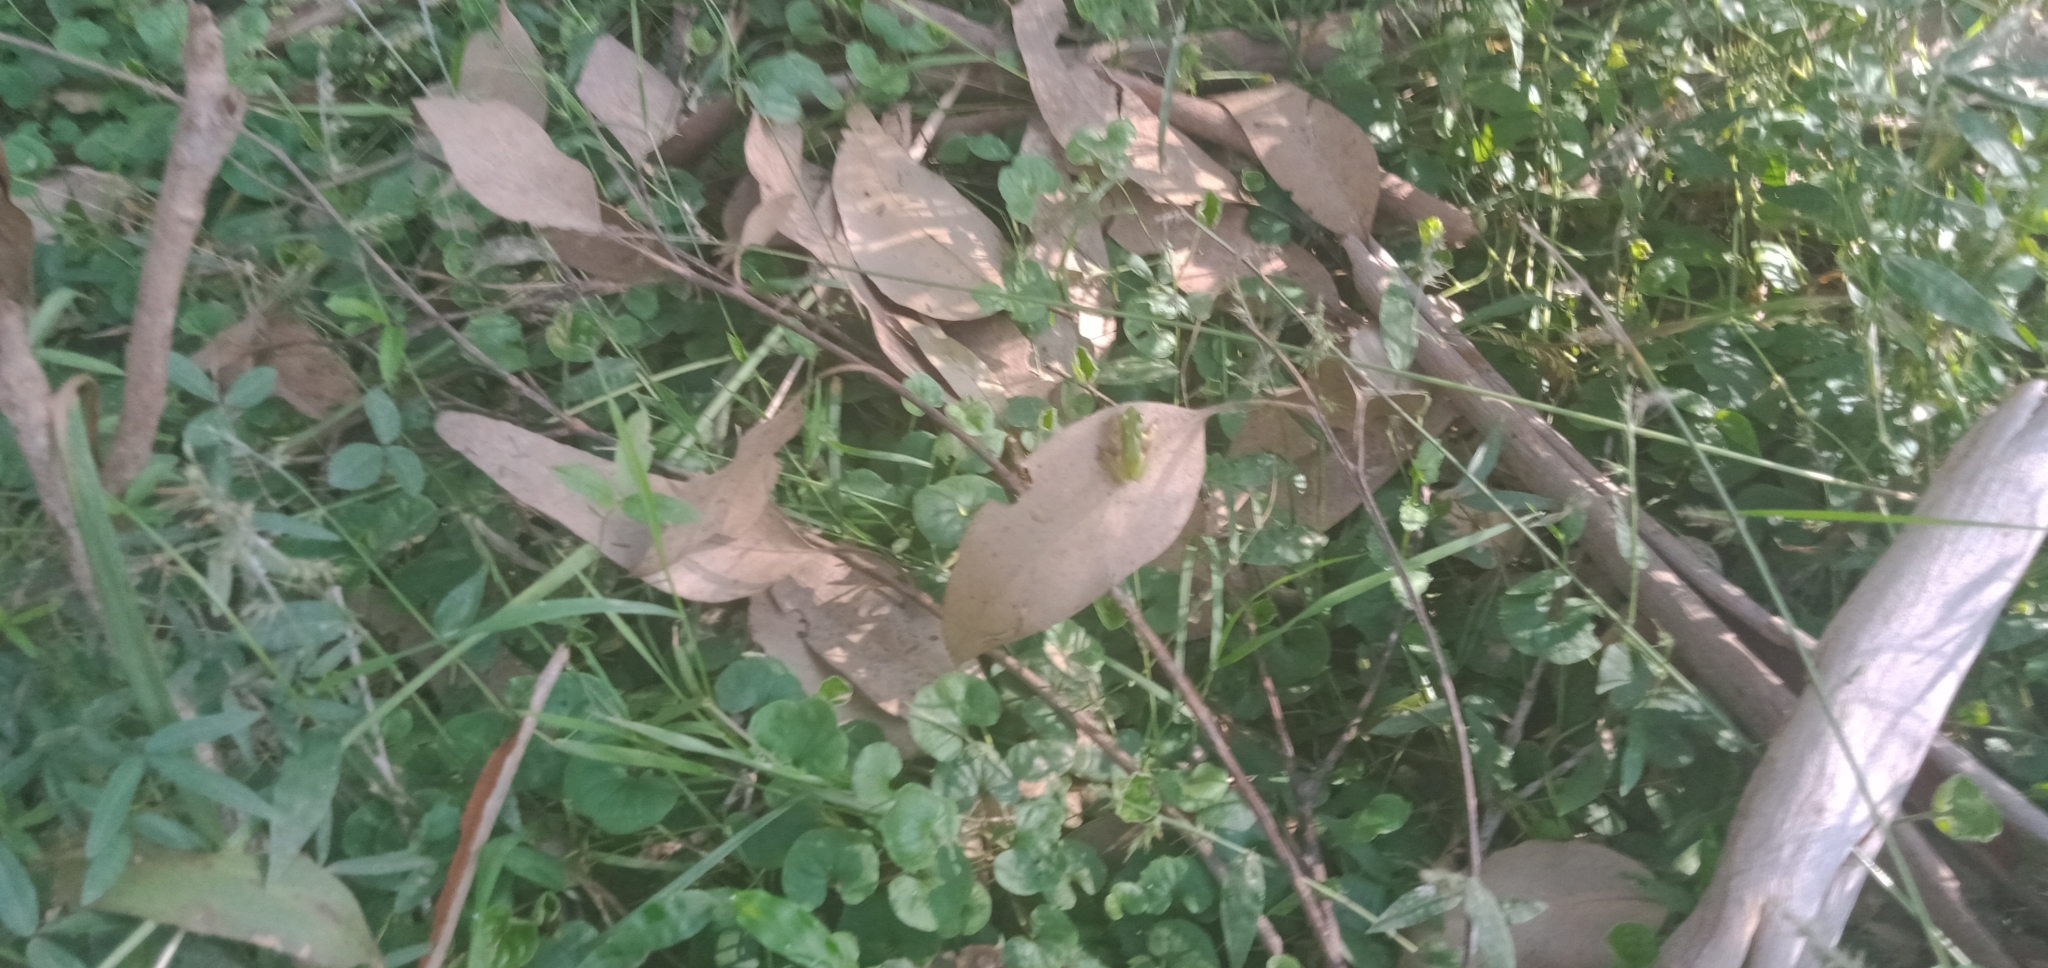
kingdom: Animalia
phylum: Chordata
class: Amphibia
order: Anura
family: Pelodryadidae
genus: Litoria
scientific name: Litoria fallax
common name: Eastern dwarf treefrog
